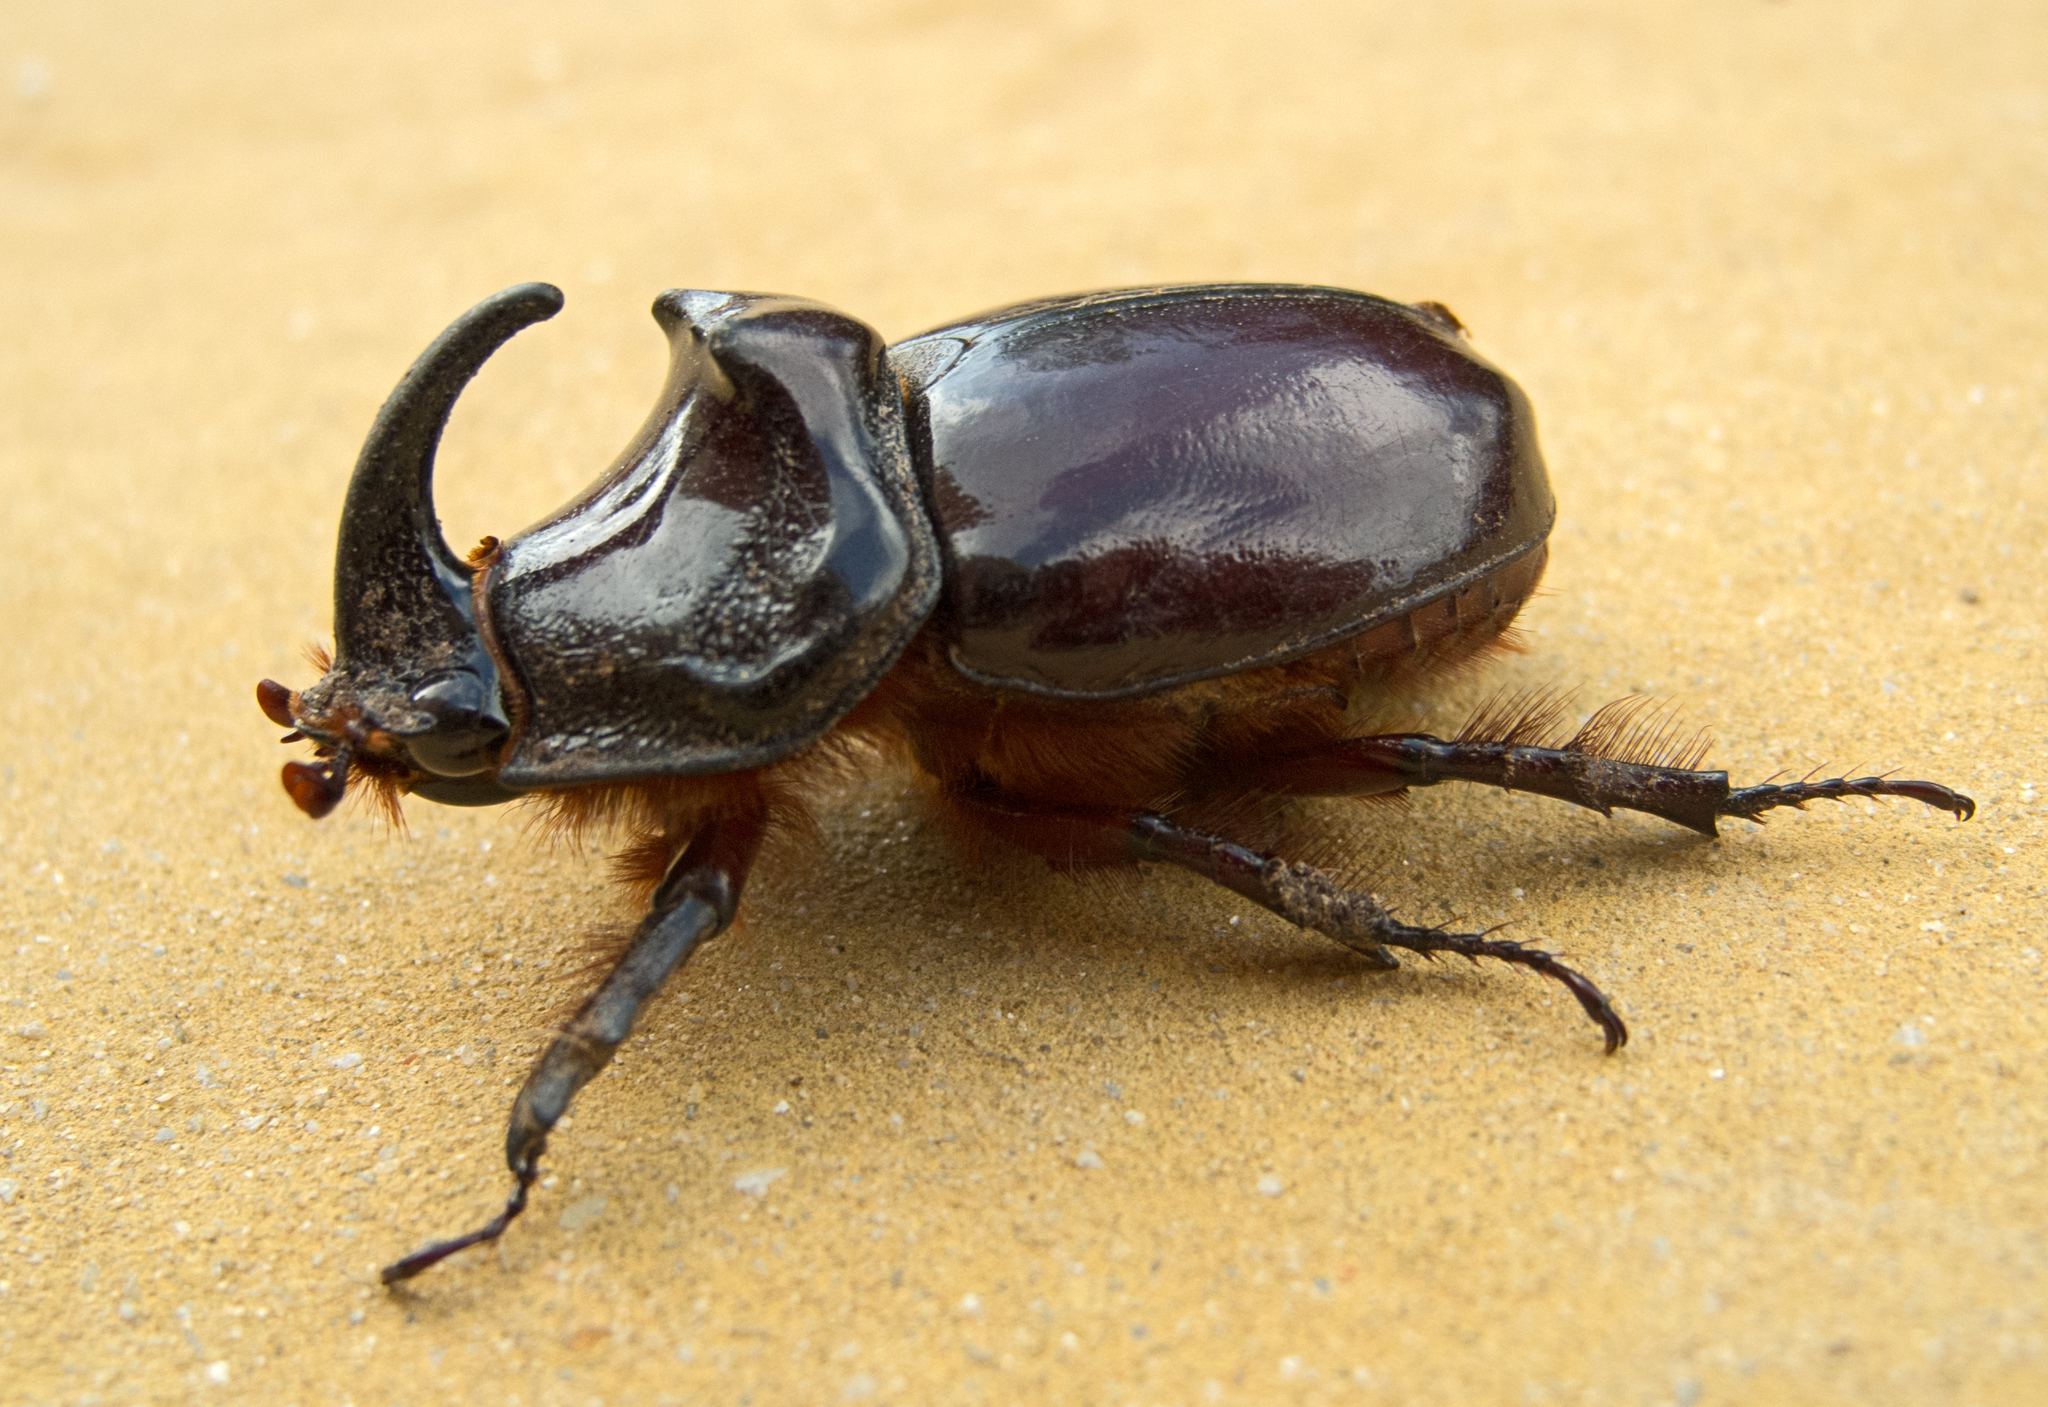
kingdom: Animalia
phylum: Arthropoda
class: Insecta
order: Coleoptera
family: Scarabaeidae
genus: Oryctes
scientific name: Oryctes nasicornis
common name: European rhinoceros beetle
